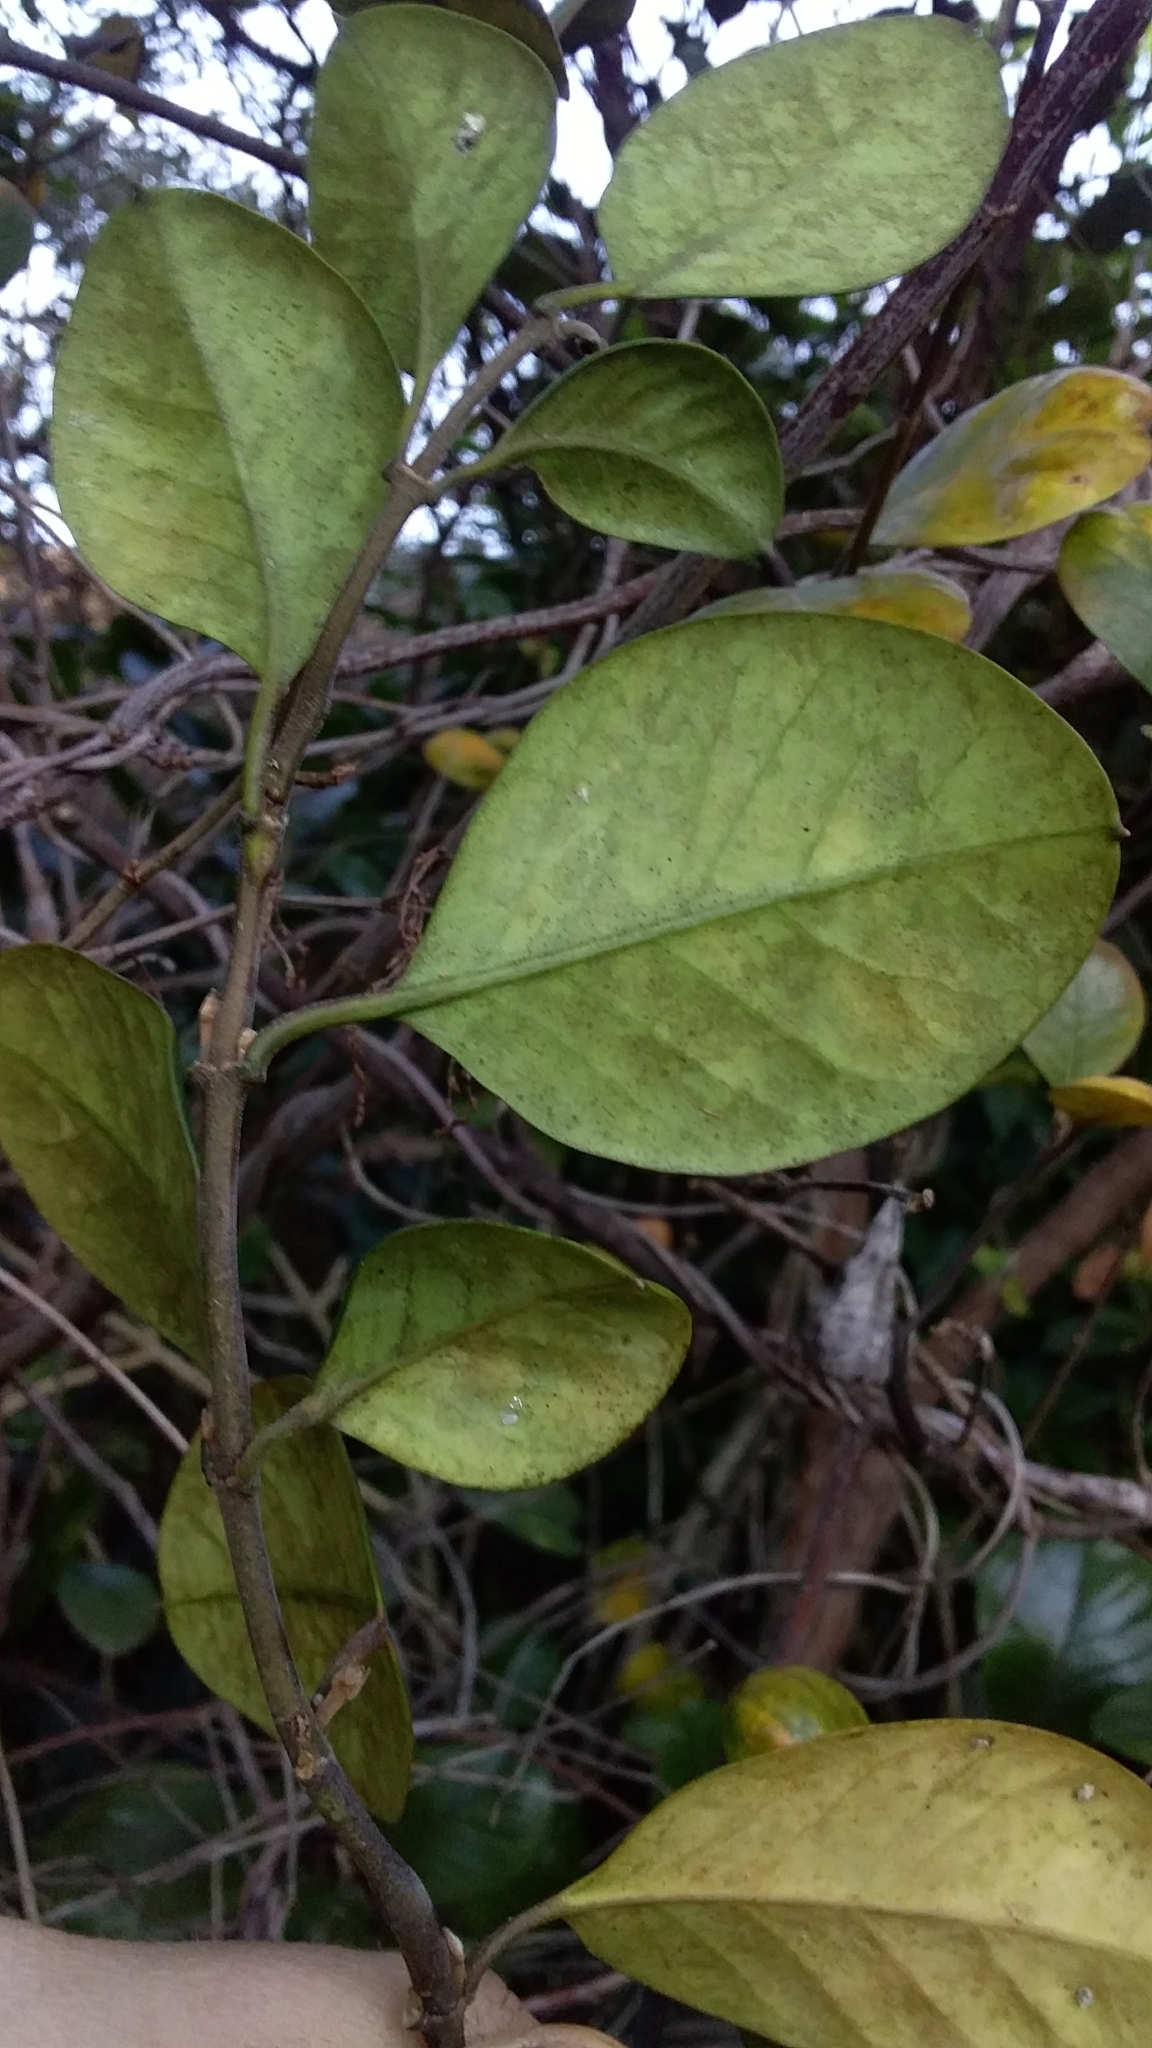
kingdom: Plantae
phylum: Tracheophyta
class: Magnoliopsida
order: Gentianales
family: Apocynaceae
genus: Parsonsia
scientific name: Parsonsia heterophylla
